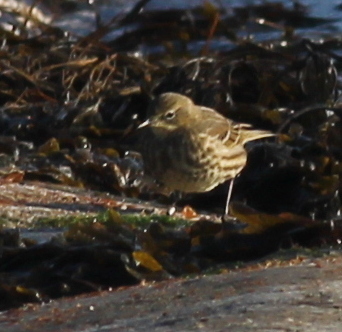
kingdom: Animalia
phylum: Chordata
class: Aves
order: Passeriformes
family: Motacillidae
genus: Anthus
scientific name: Anthus petrosus
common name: Eurasian rock pipit
